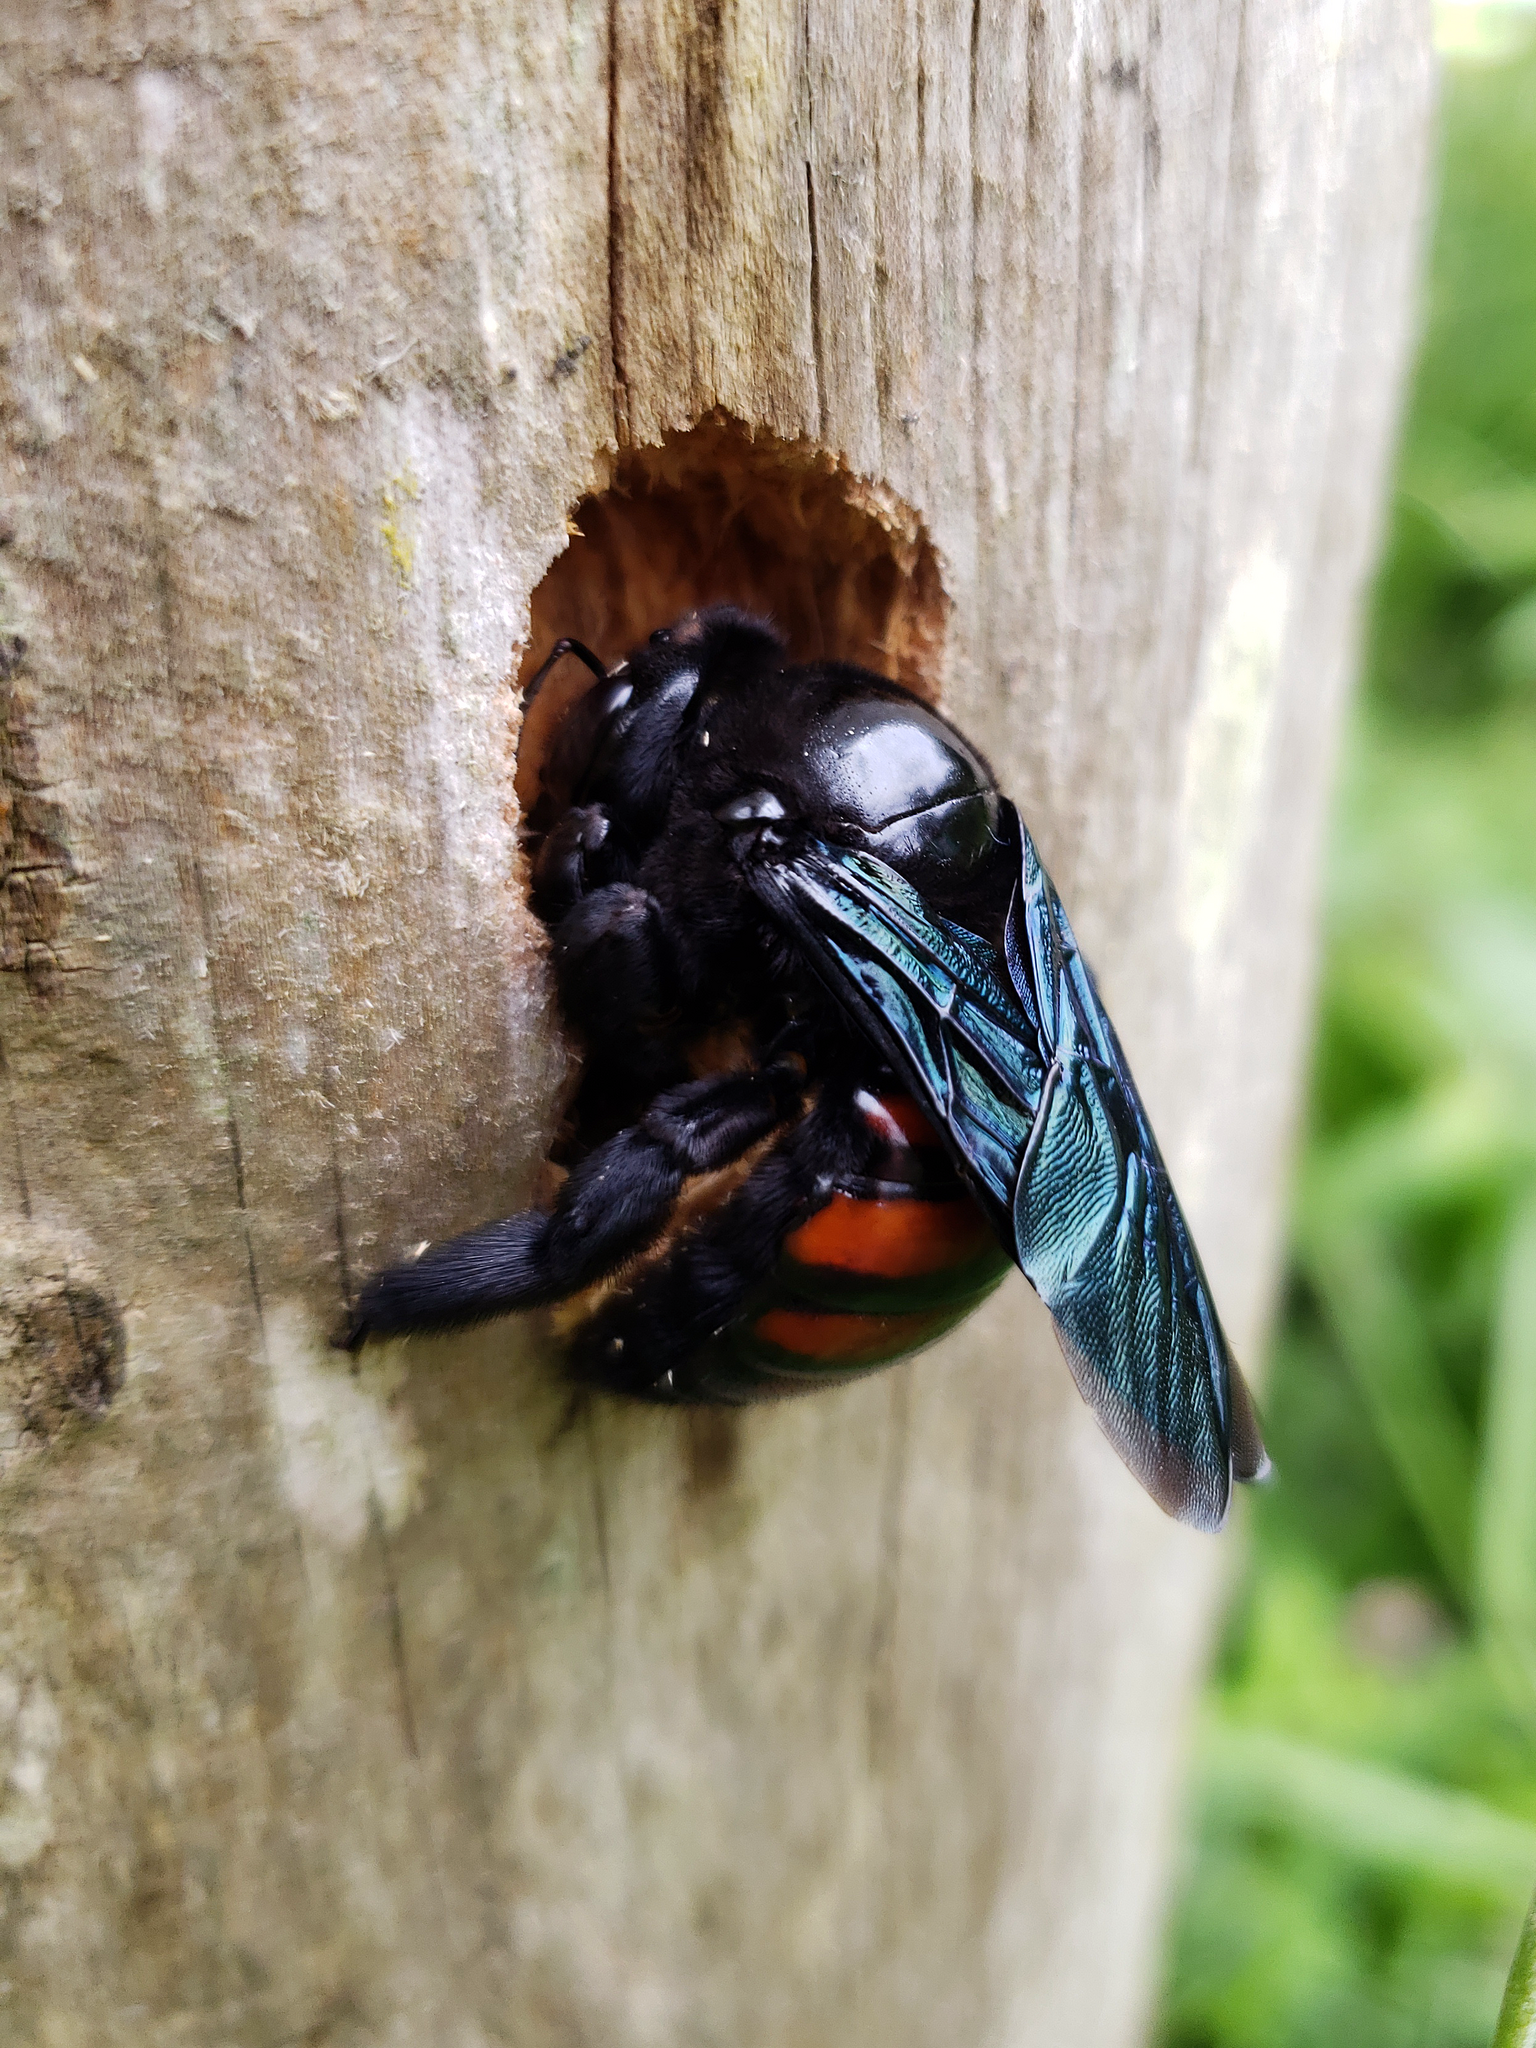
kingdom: Animalia
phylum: Arthropoda
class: Insecta
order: Hymenoptera
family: Apidae
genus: Xylocopa
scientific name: Xylocopa frontalis
